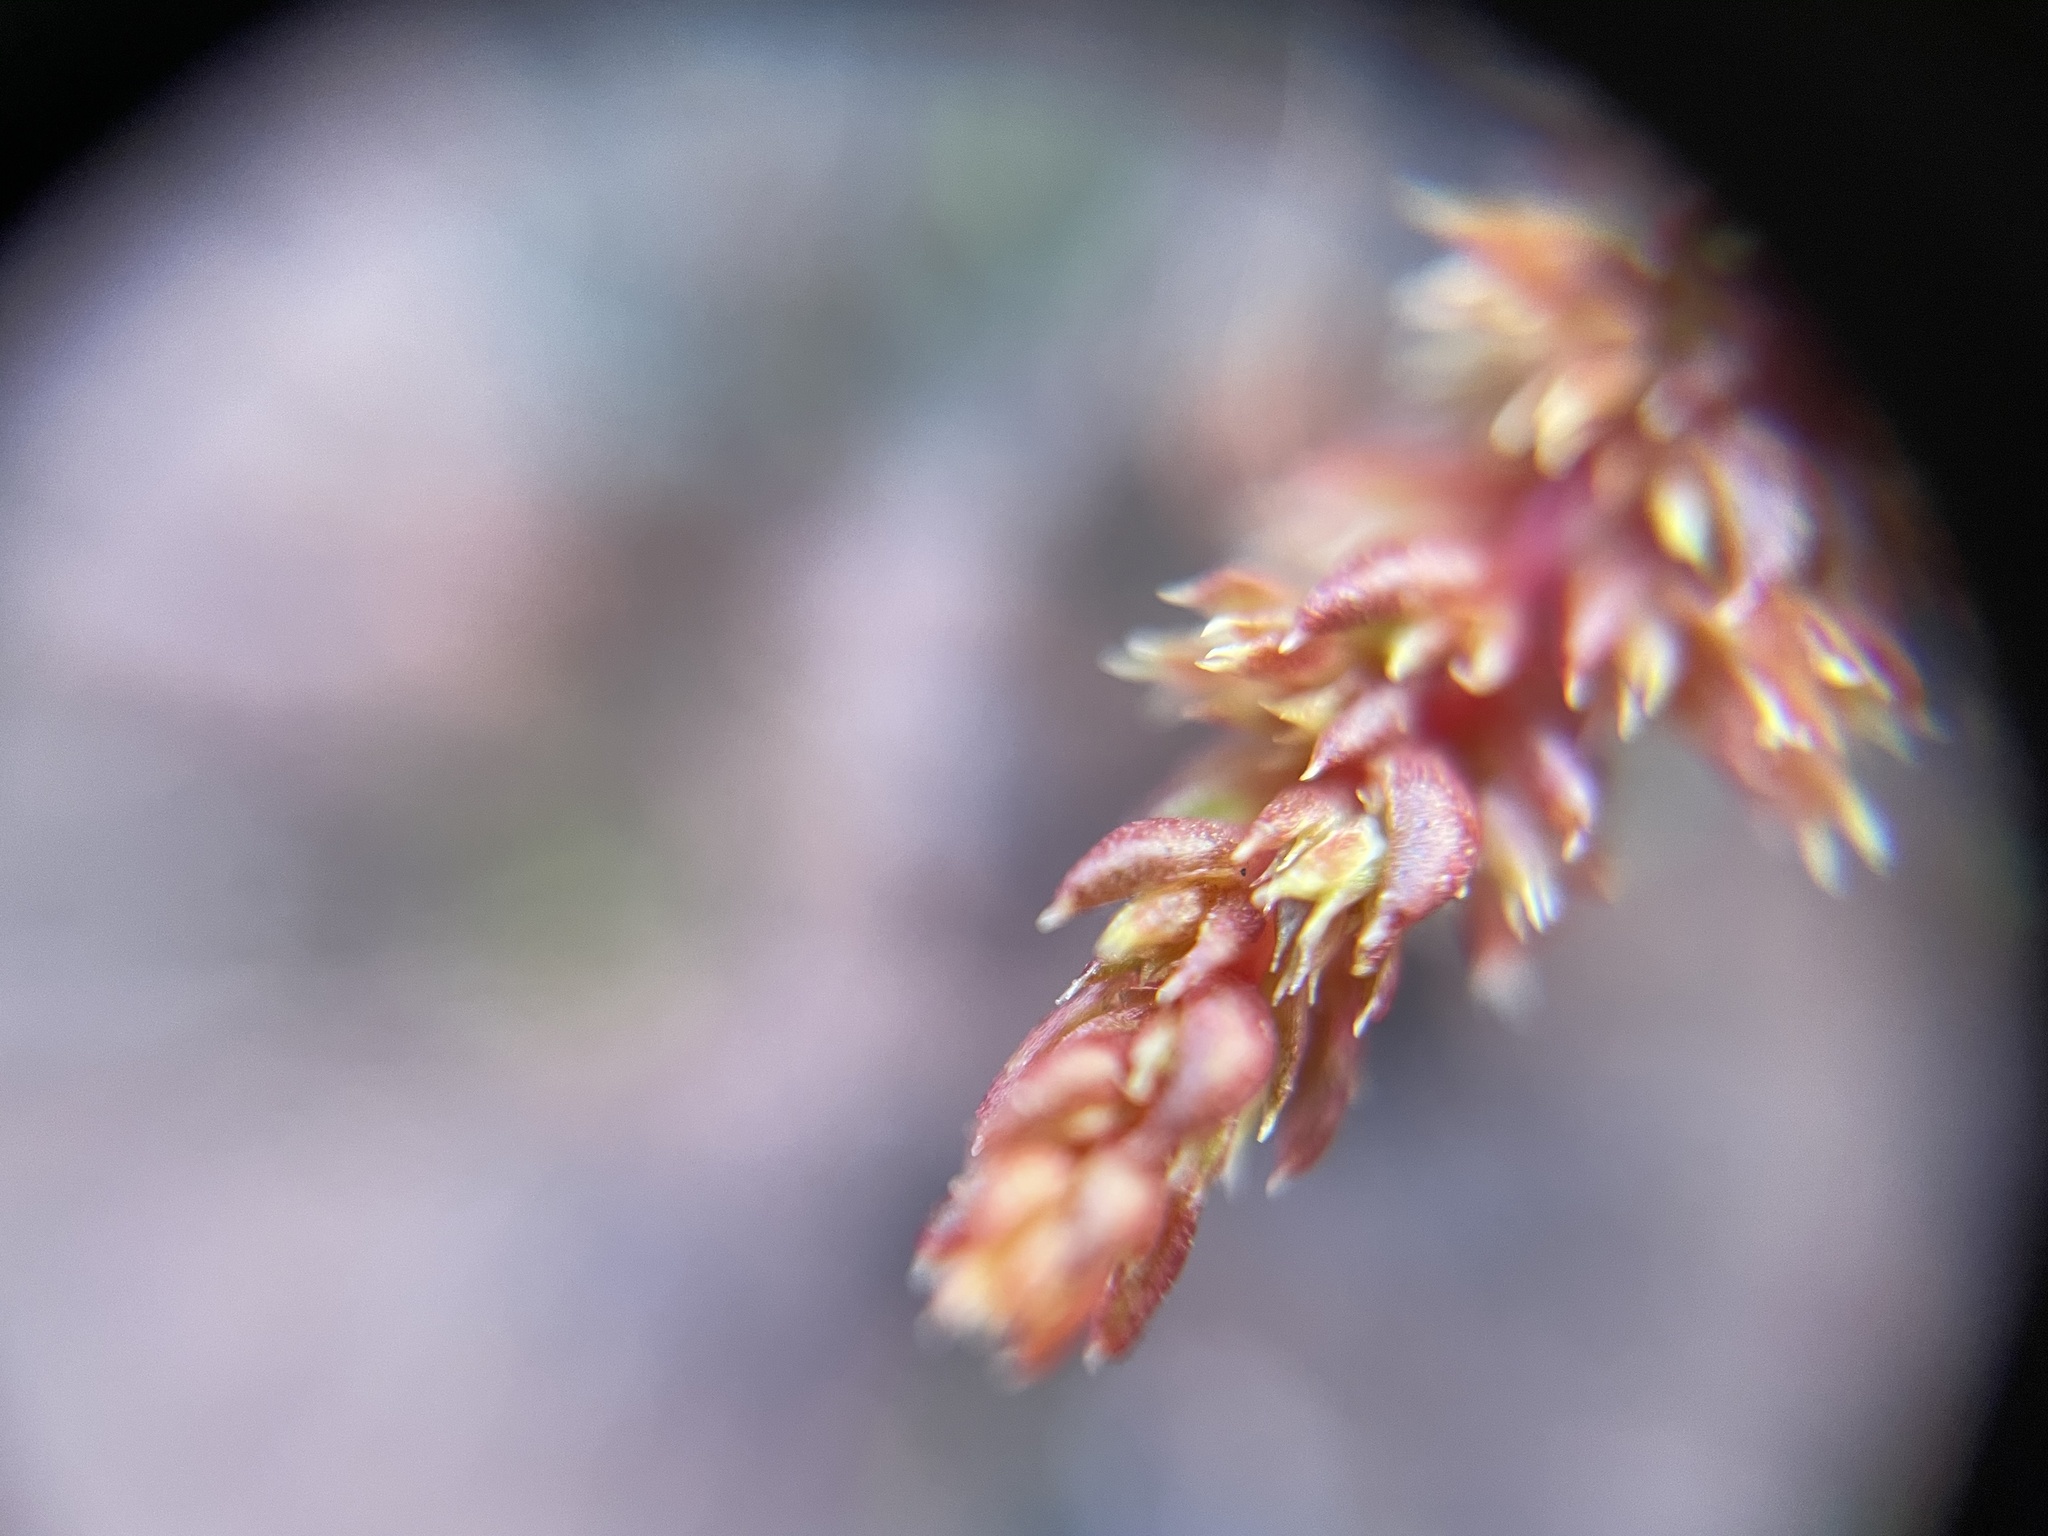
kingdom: Plantae
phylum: Tracheophyta
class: Magnoliopsida
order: Saxifragales
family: Crassulaceae
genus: Crassula
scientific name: Crassula tillaea
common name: Mossy stonecrop
